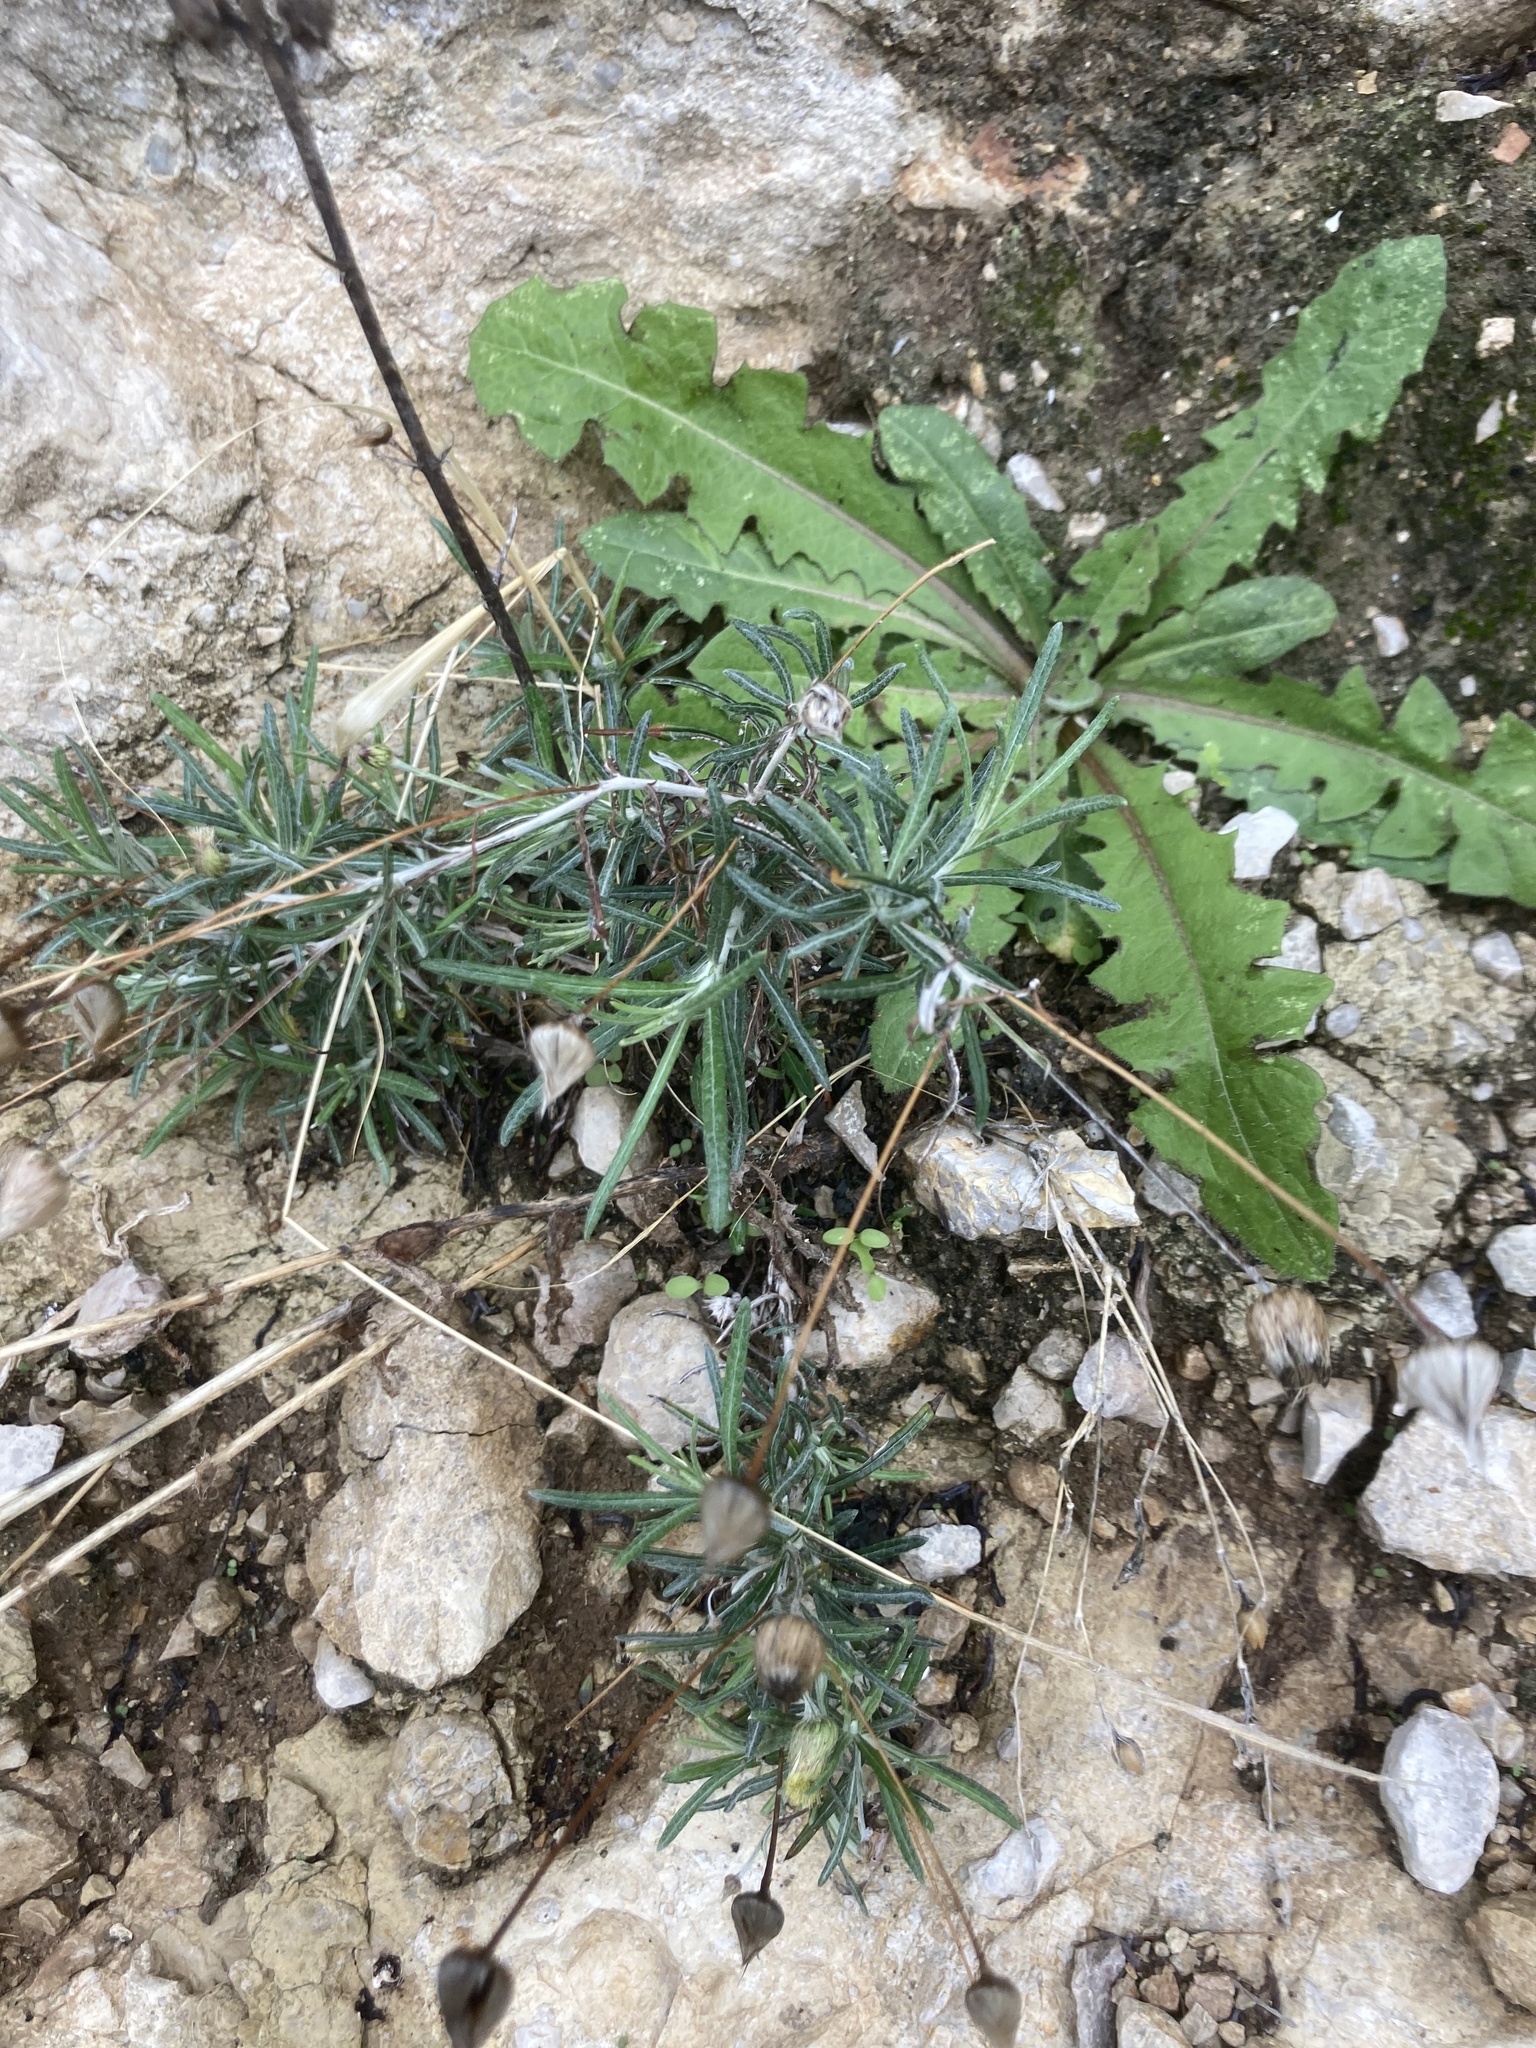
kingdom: Plantae
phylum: Tracheophyta
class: Magnoliopsida
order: Asterales
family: Asteraceae
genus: Phagnalon
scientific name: Phagnalon saxatile
